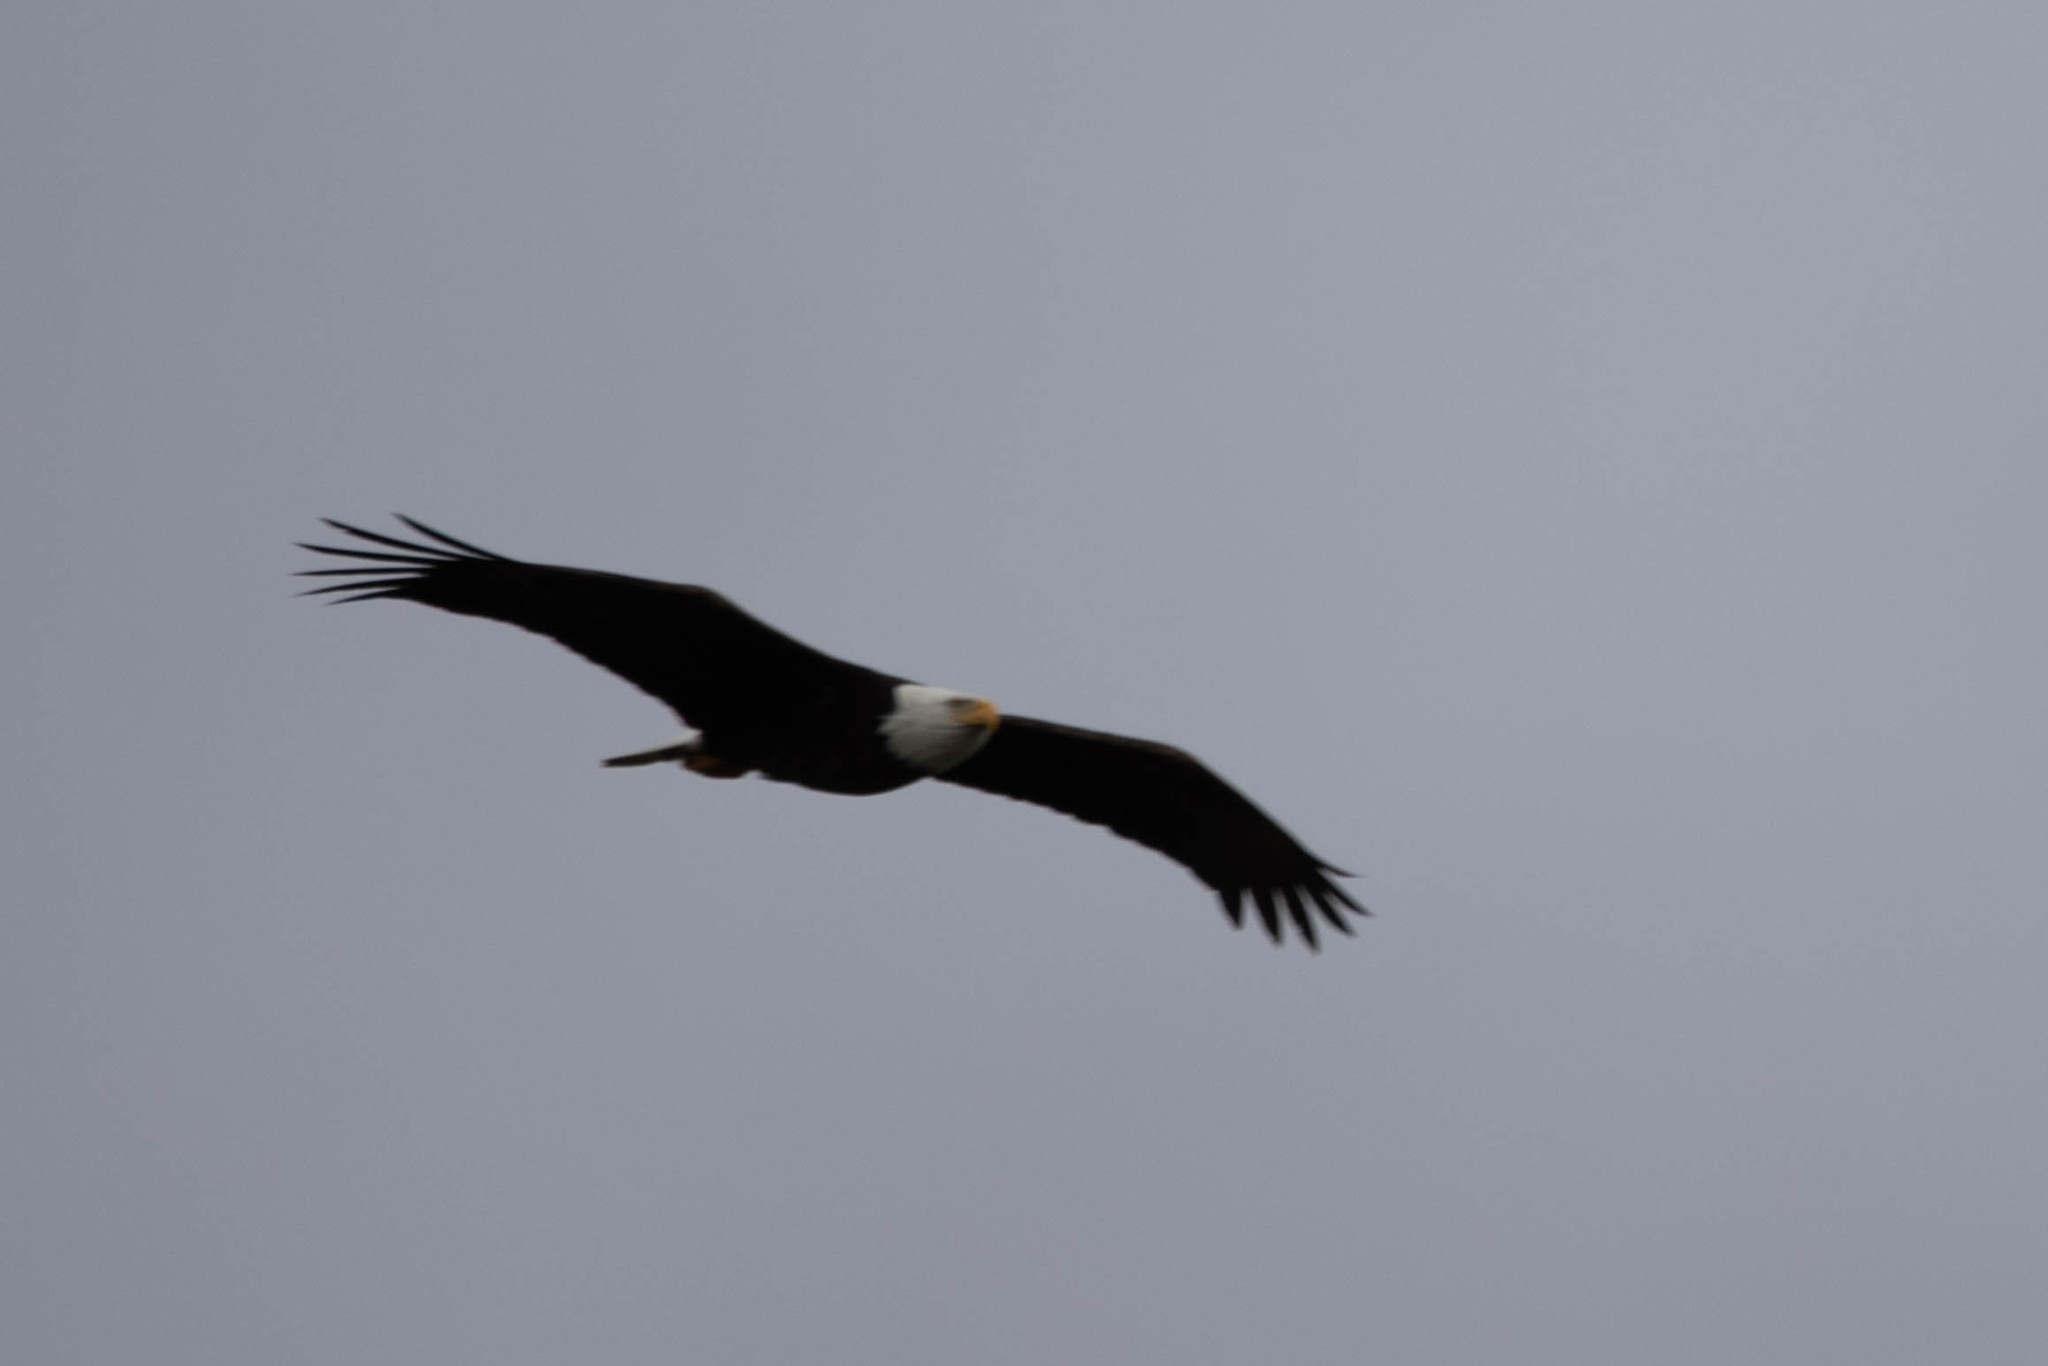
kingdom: Animalia
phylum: Chordata
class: Aves
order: Accipitriformes
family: Accipitridae
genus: Haliaeetus
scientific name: Haliaeetus leucocephalus
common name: Bald eagle
